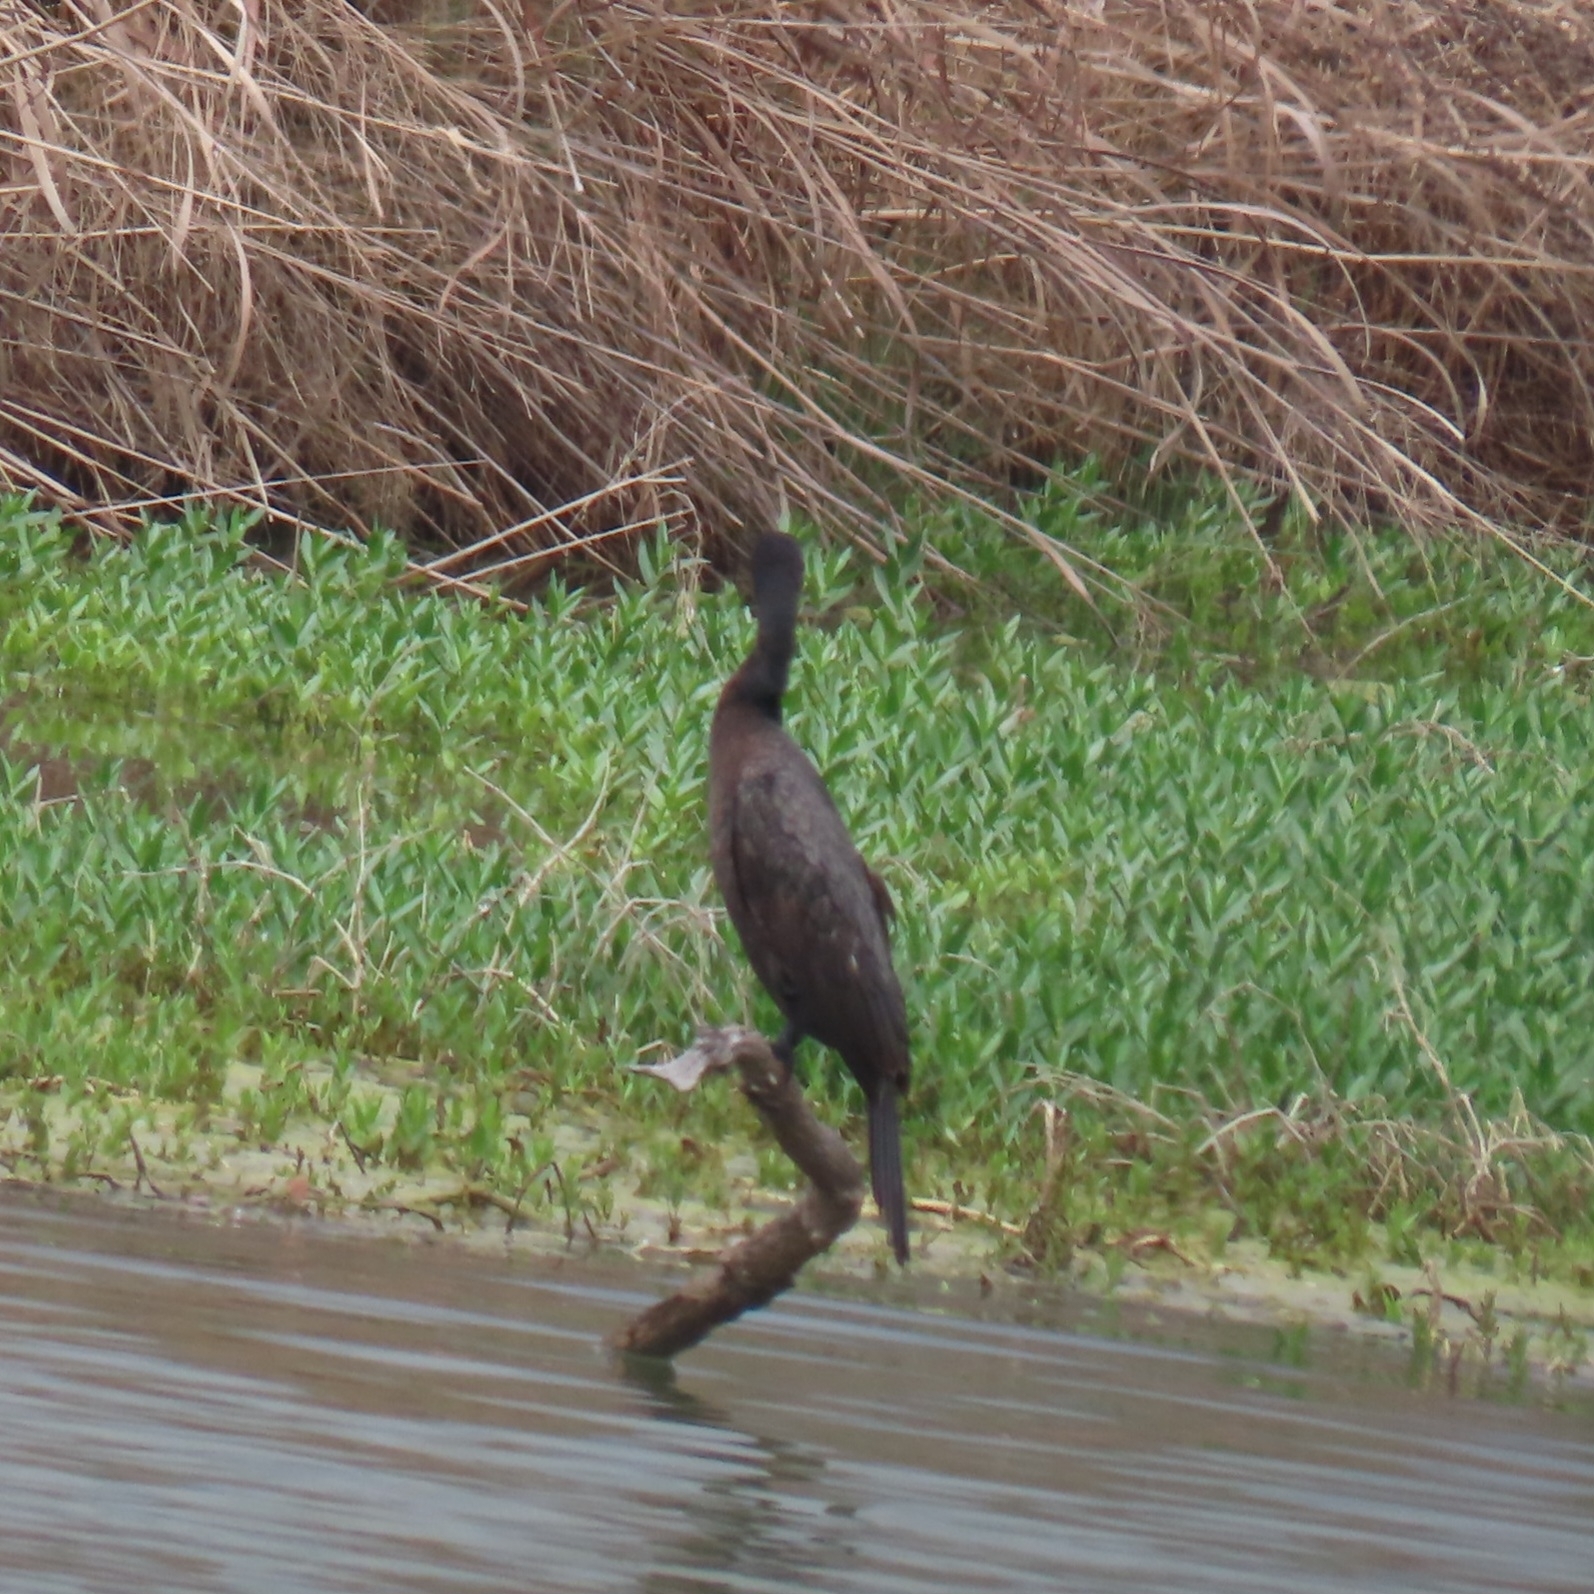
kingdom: Animalia
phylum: Chordata
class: Aves
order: Suliformes
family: Phalacrocoracidae
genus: Phalacrocorax
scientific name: Phalacrocorax brasilianus
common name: Neotropic cormorant
